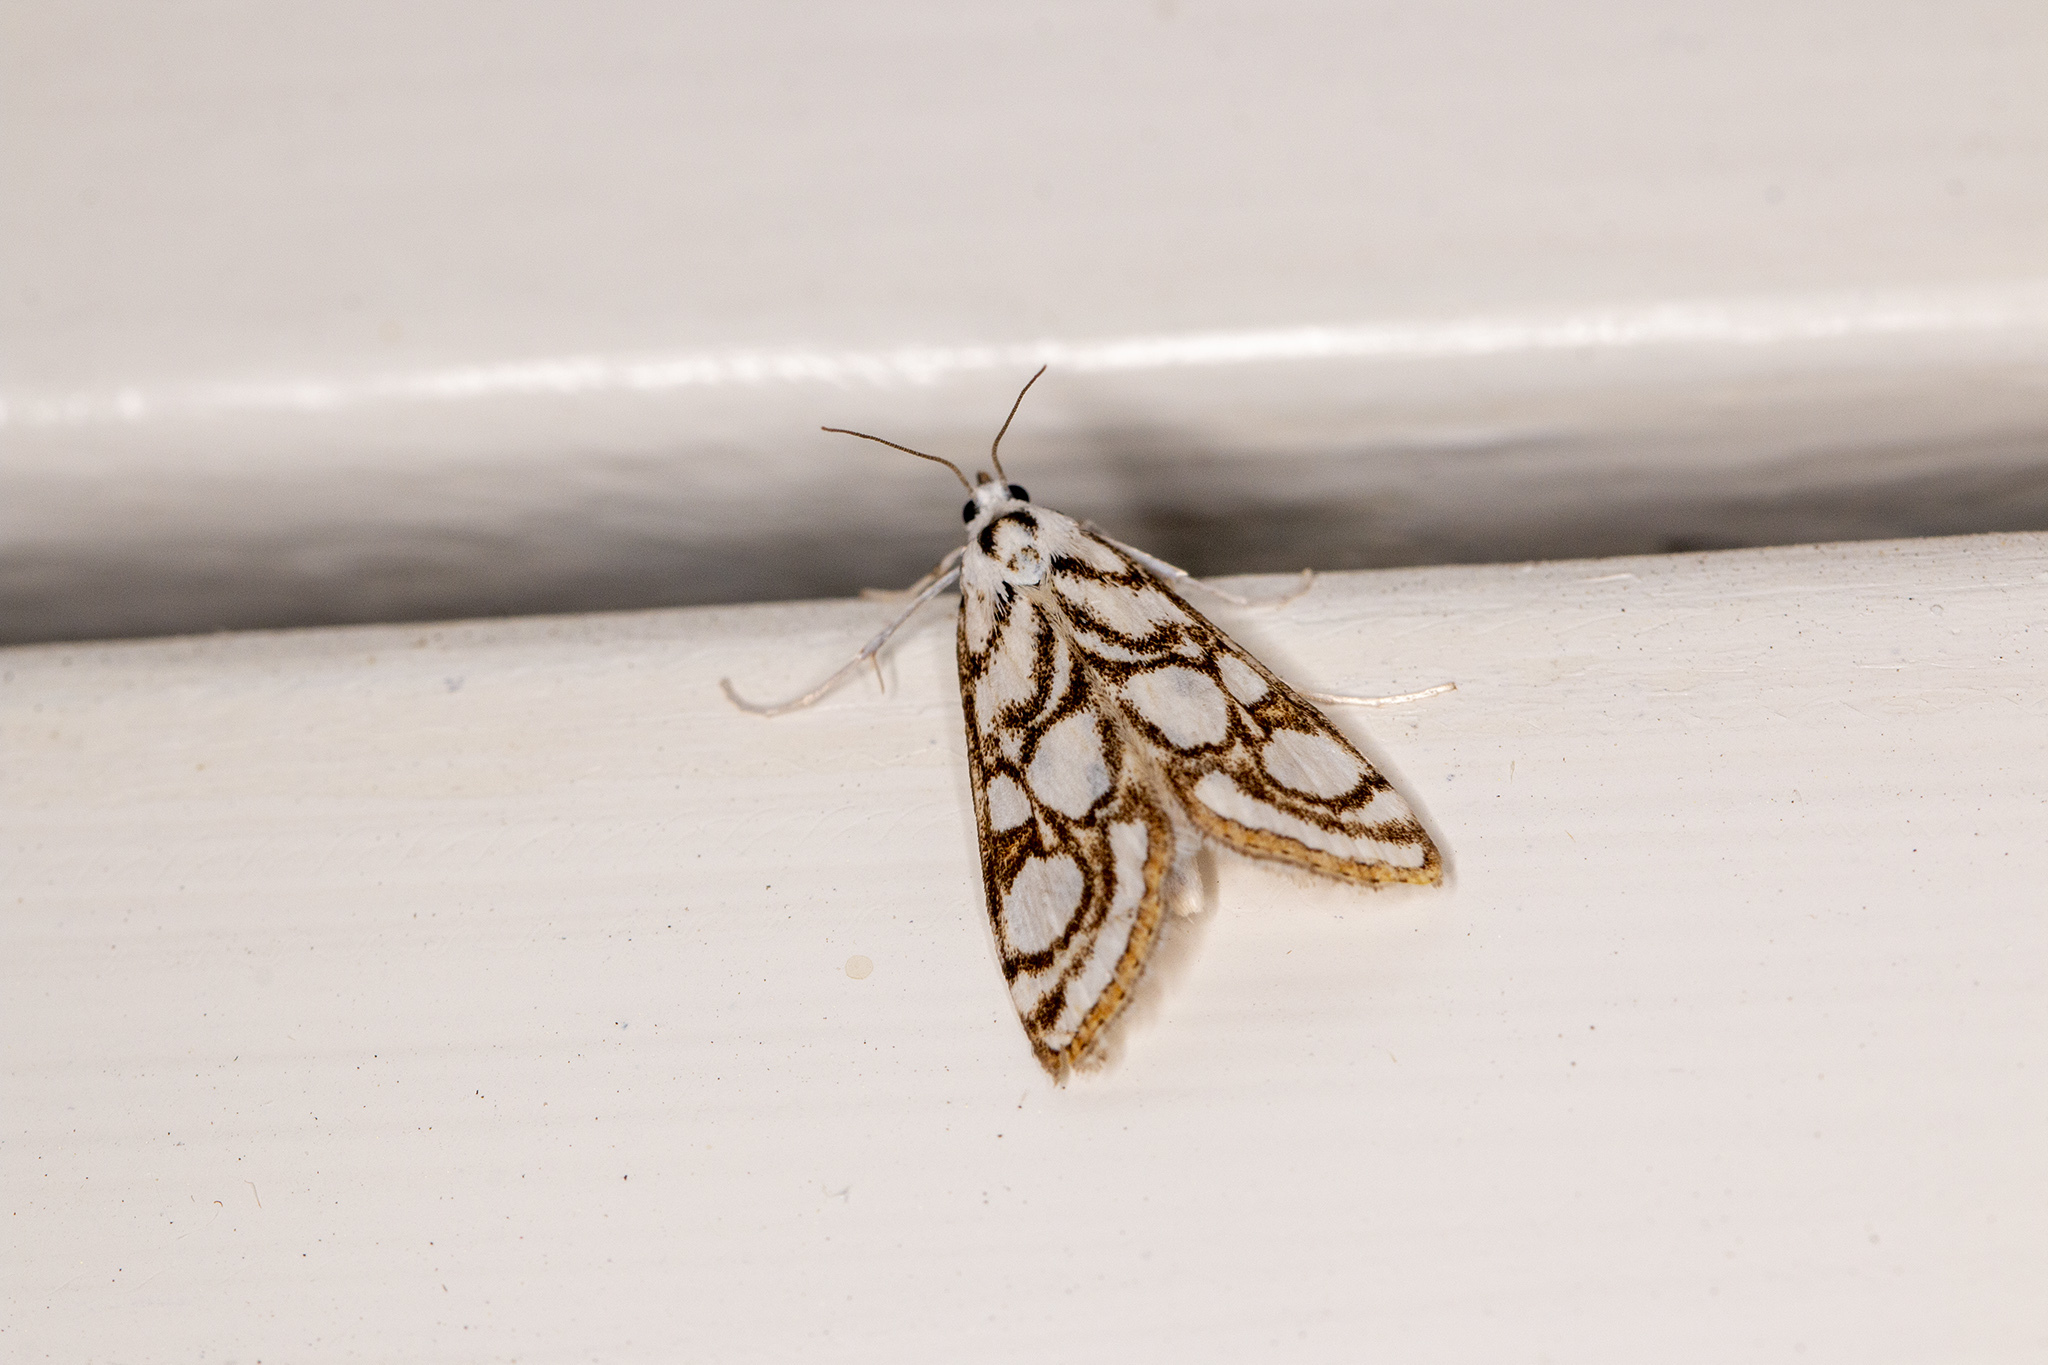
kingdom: Animalia
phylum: Arthropoda
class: Insecta
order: Lepidoptera
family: Crambidae
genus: Nymphula
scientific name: Nymphula nitidulata
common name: Beautiful china mark
